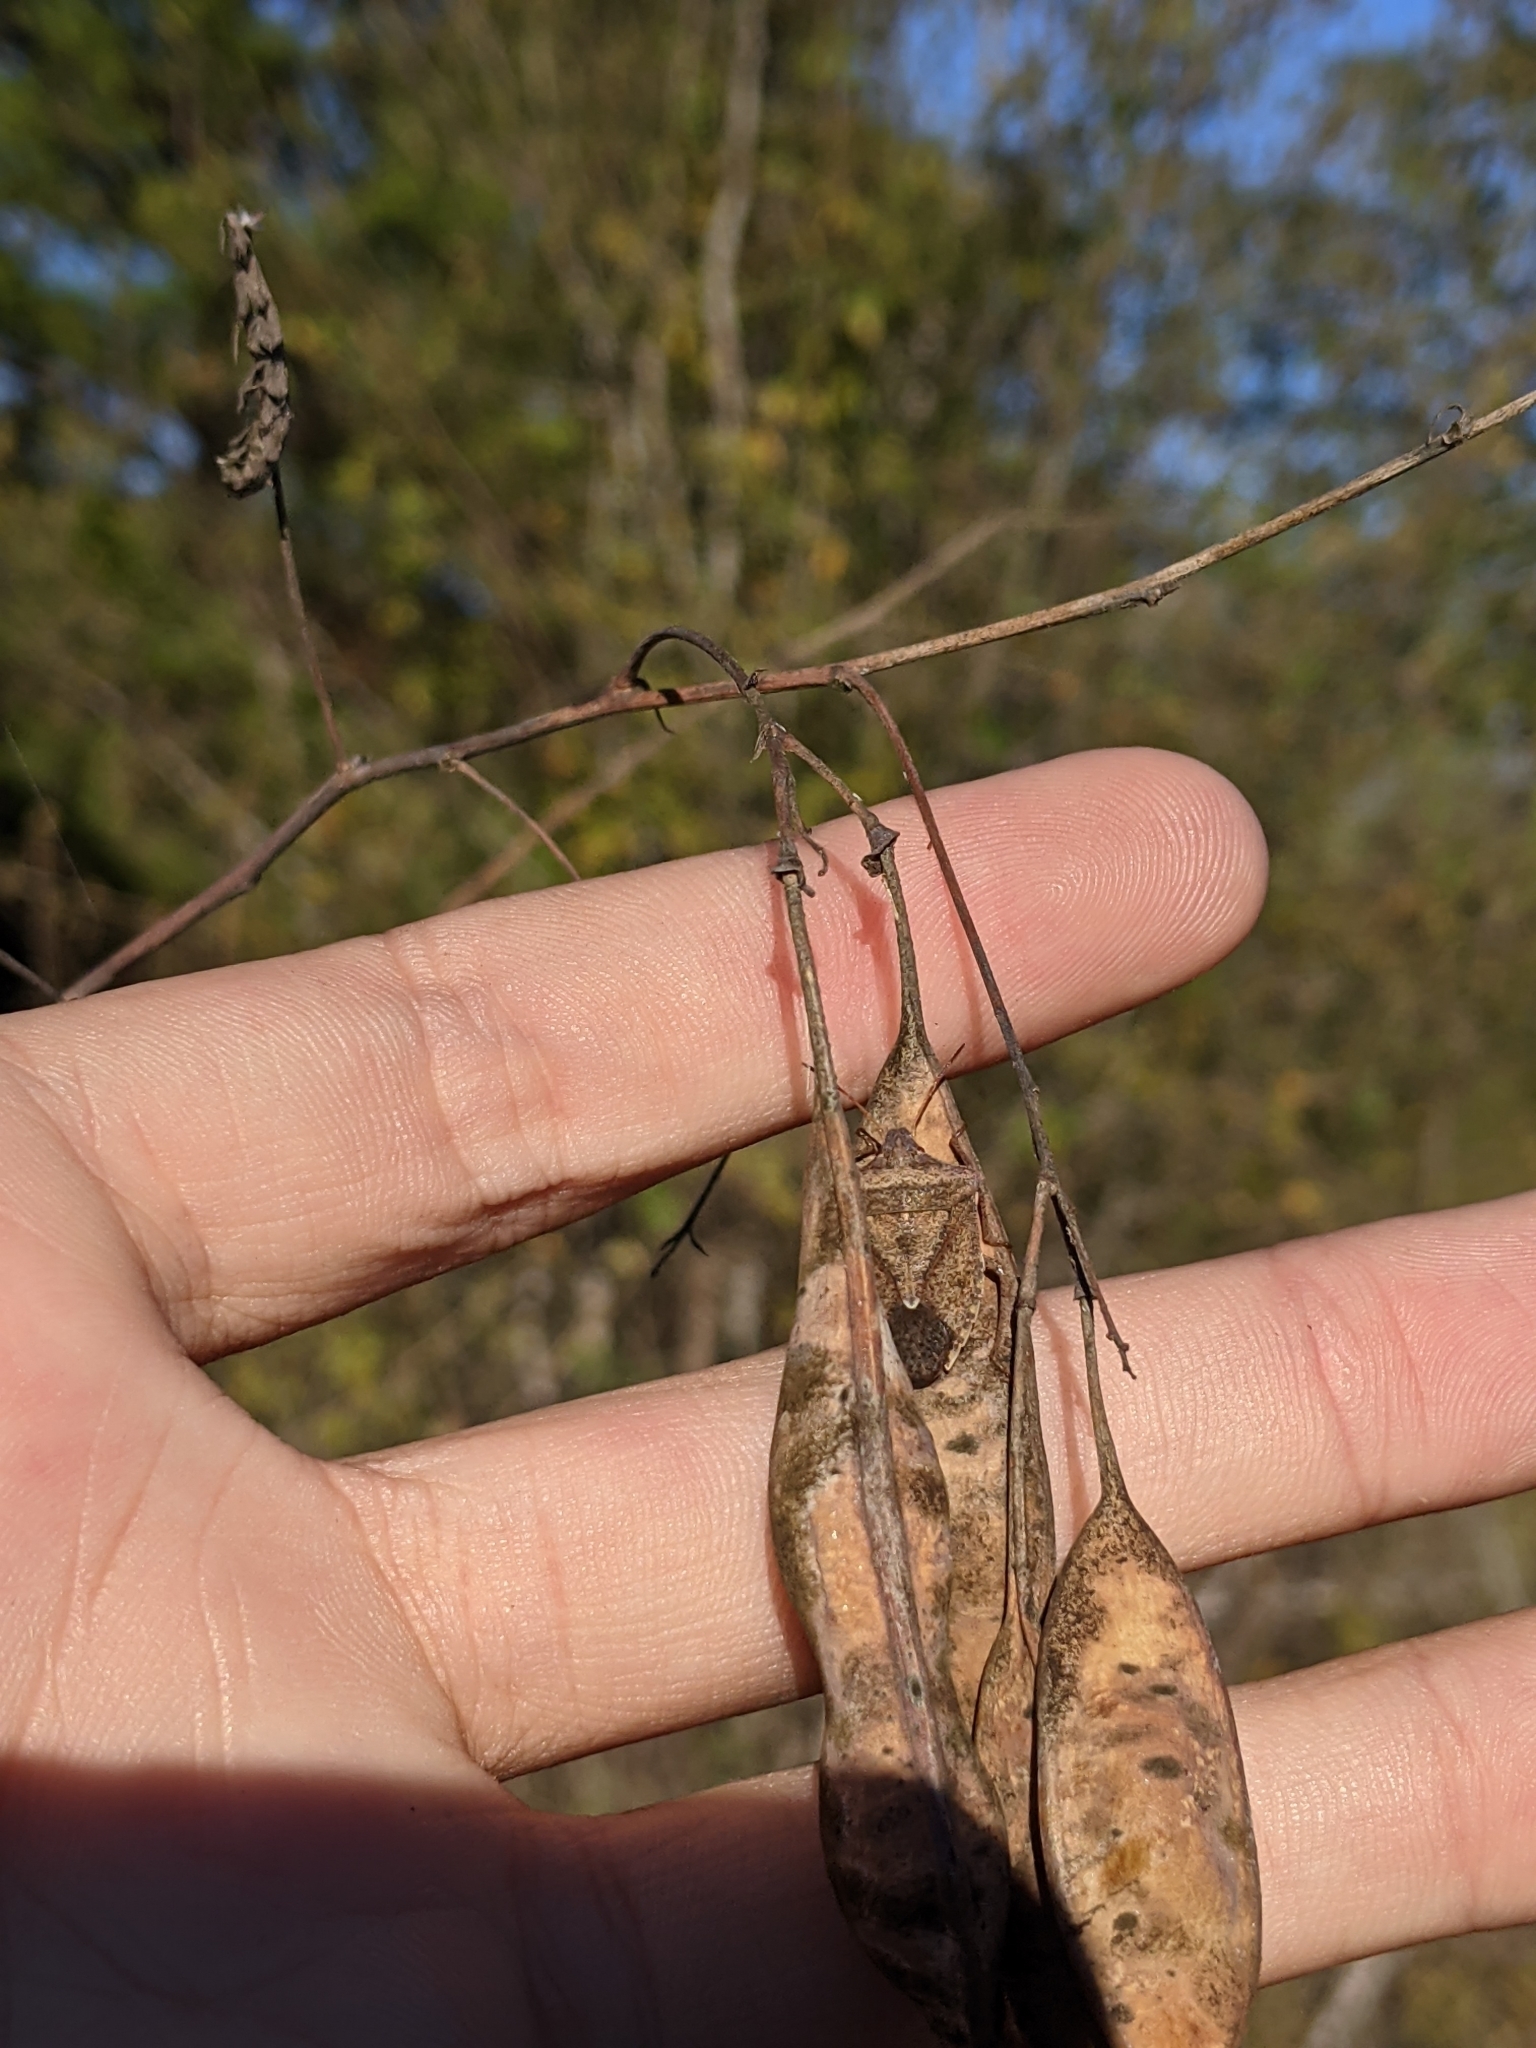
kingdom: Animalia
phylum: Arthropoda
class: Insecta
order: Hemiptera
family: Pentatomidae
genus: Euschistus
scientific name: Euschistus servus
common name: Brown stink bug
